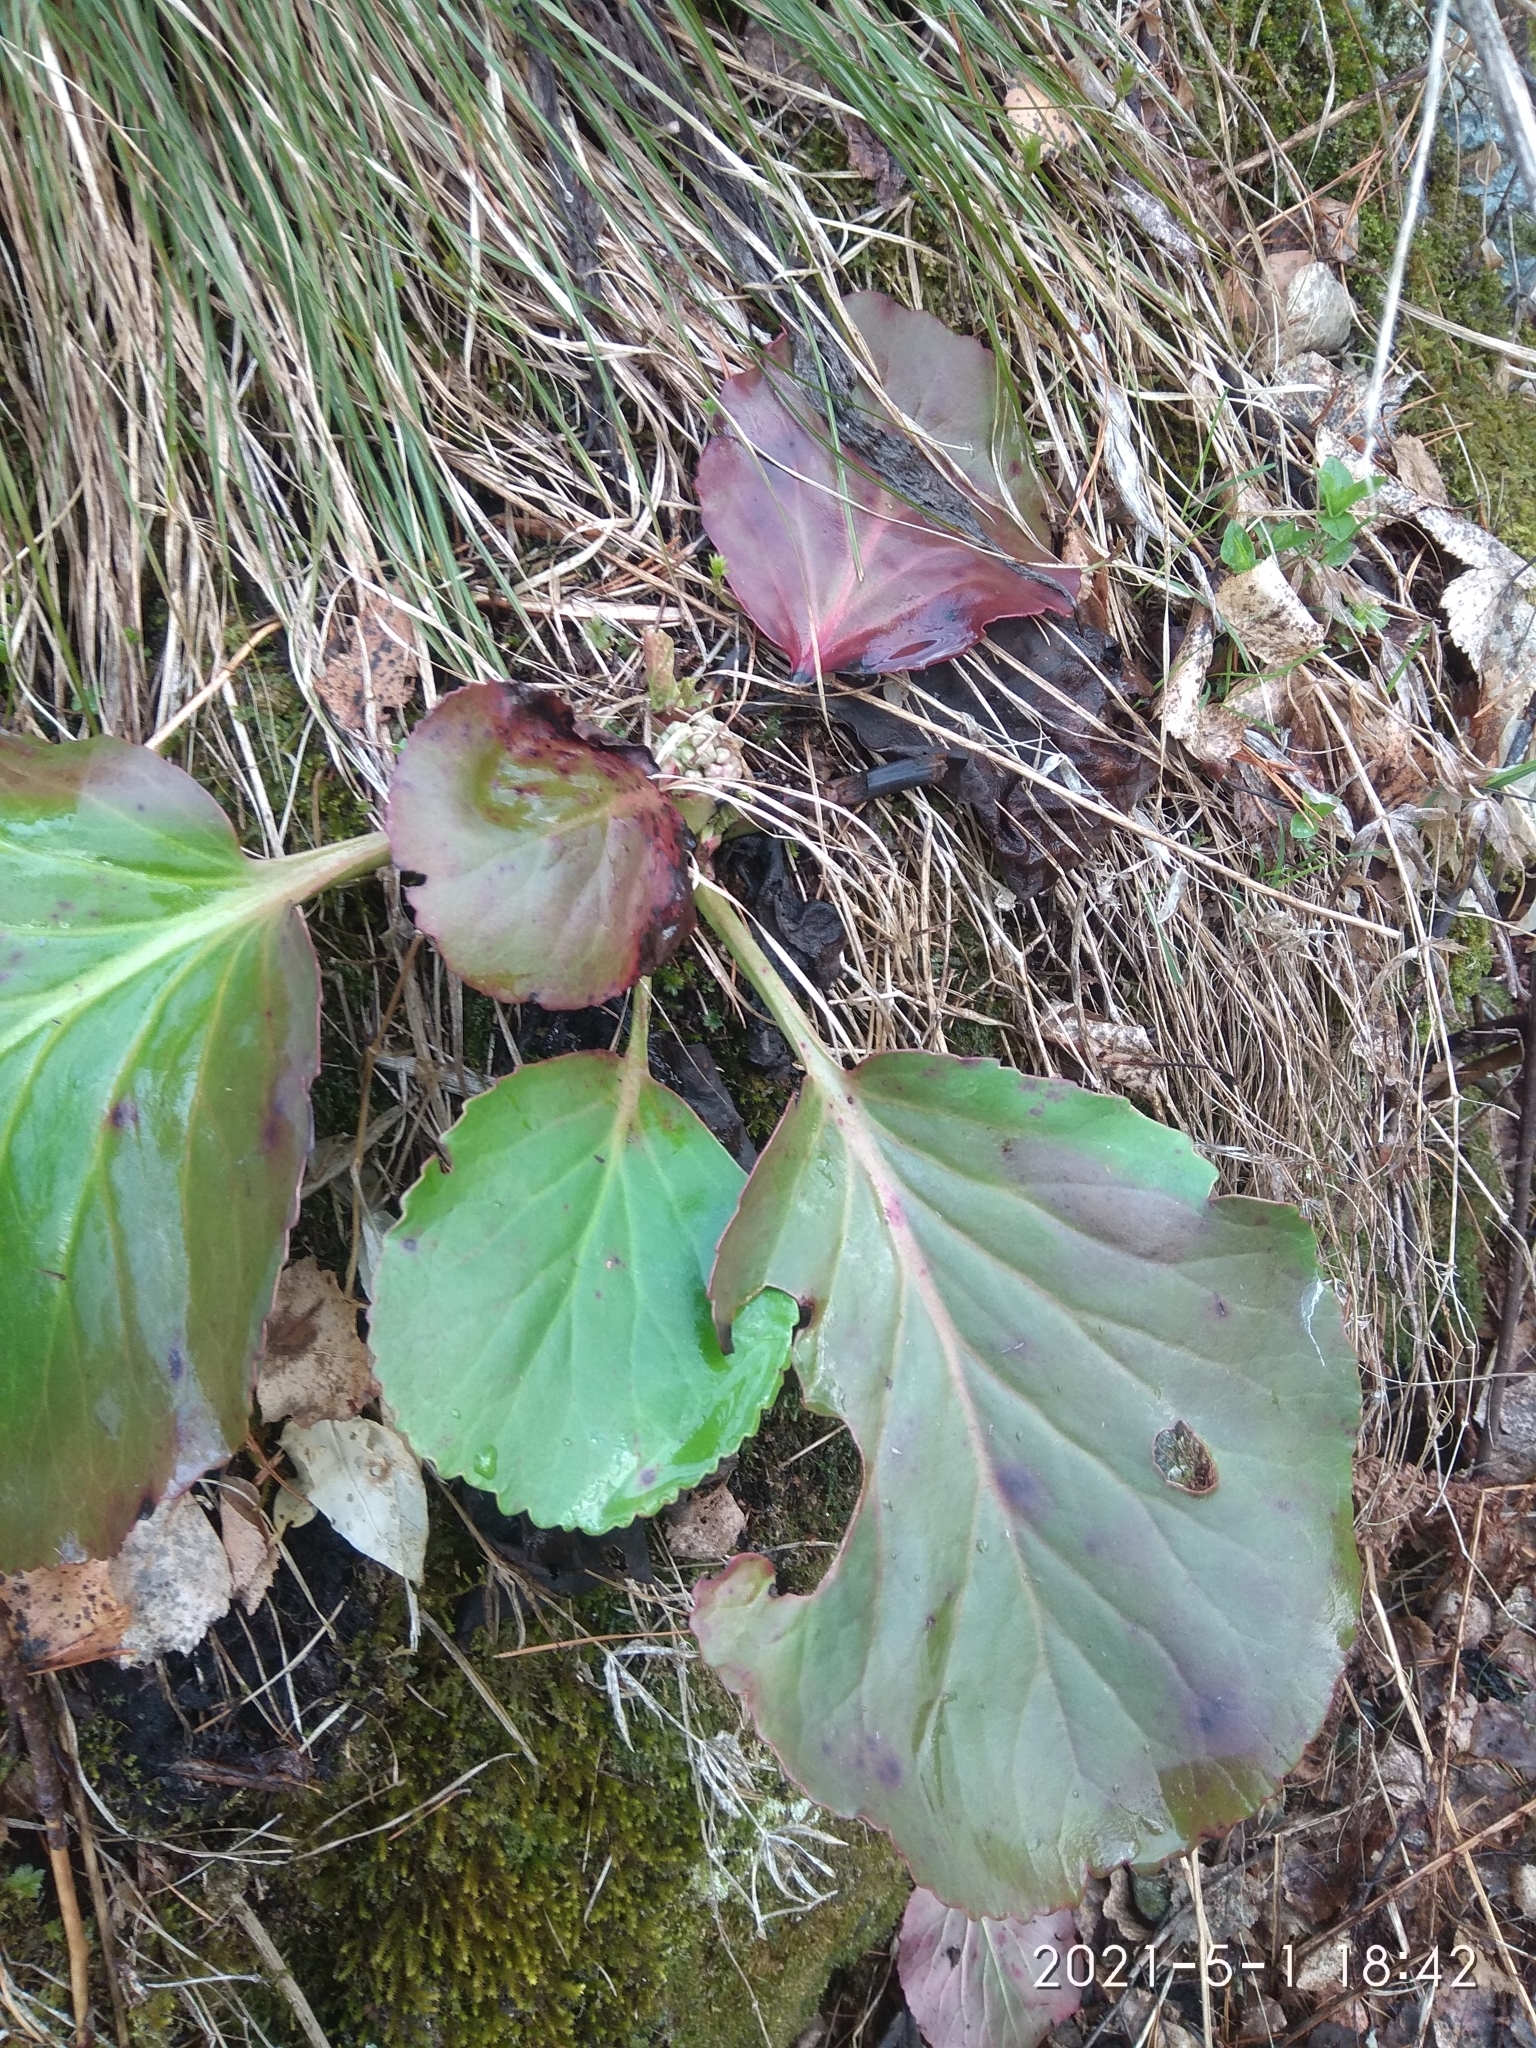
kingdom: Plantae
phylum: Tracheophyta
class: Magnoliopsida
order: Saxifragales
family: Saxifragaceae
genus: Bergenia
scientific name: Bergenia crassifolia
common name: Elephant-ears
